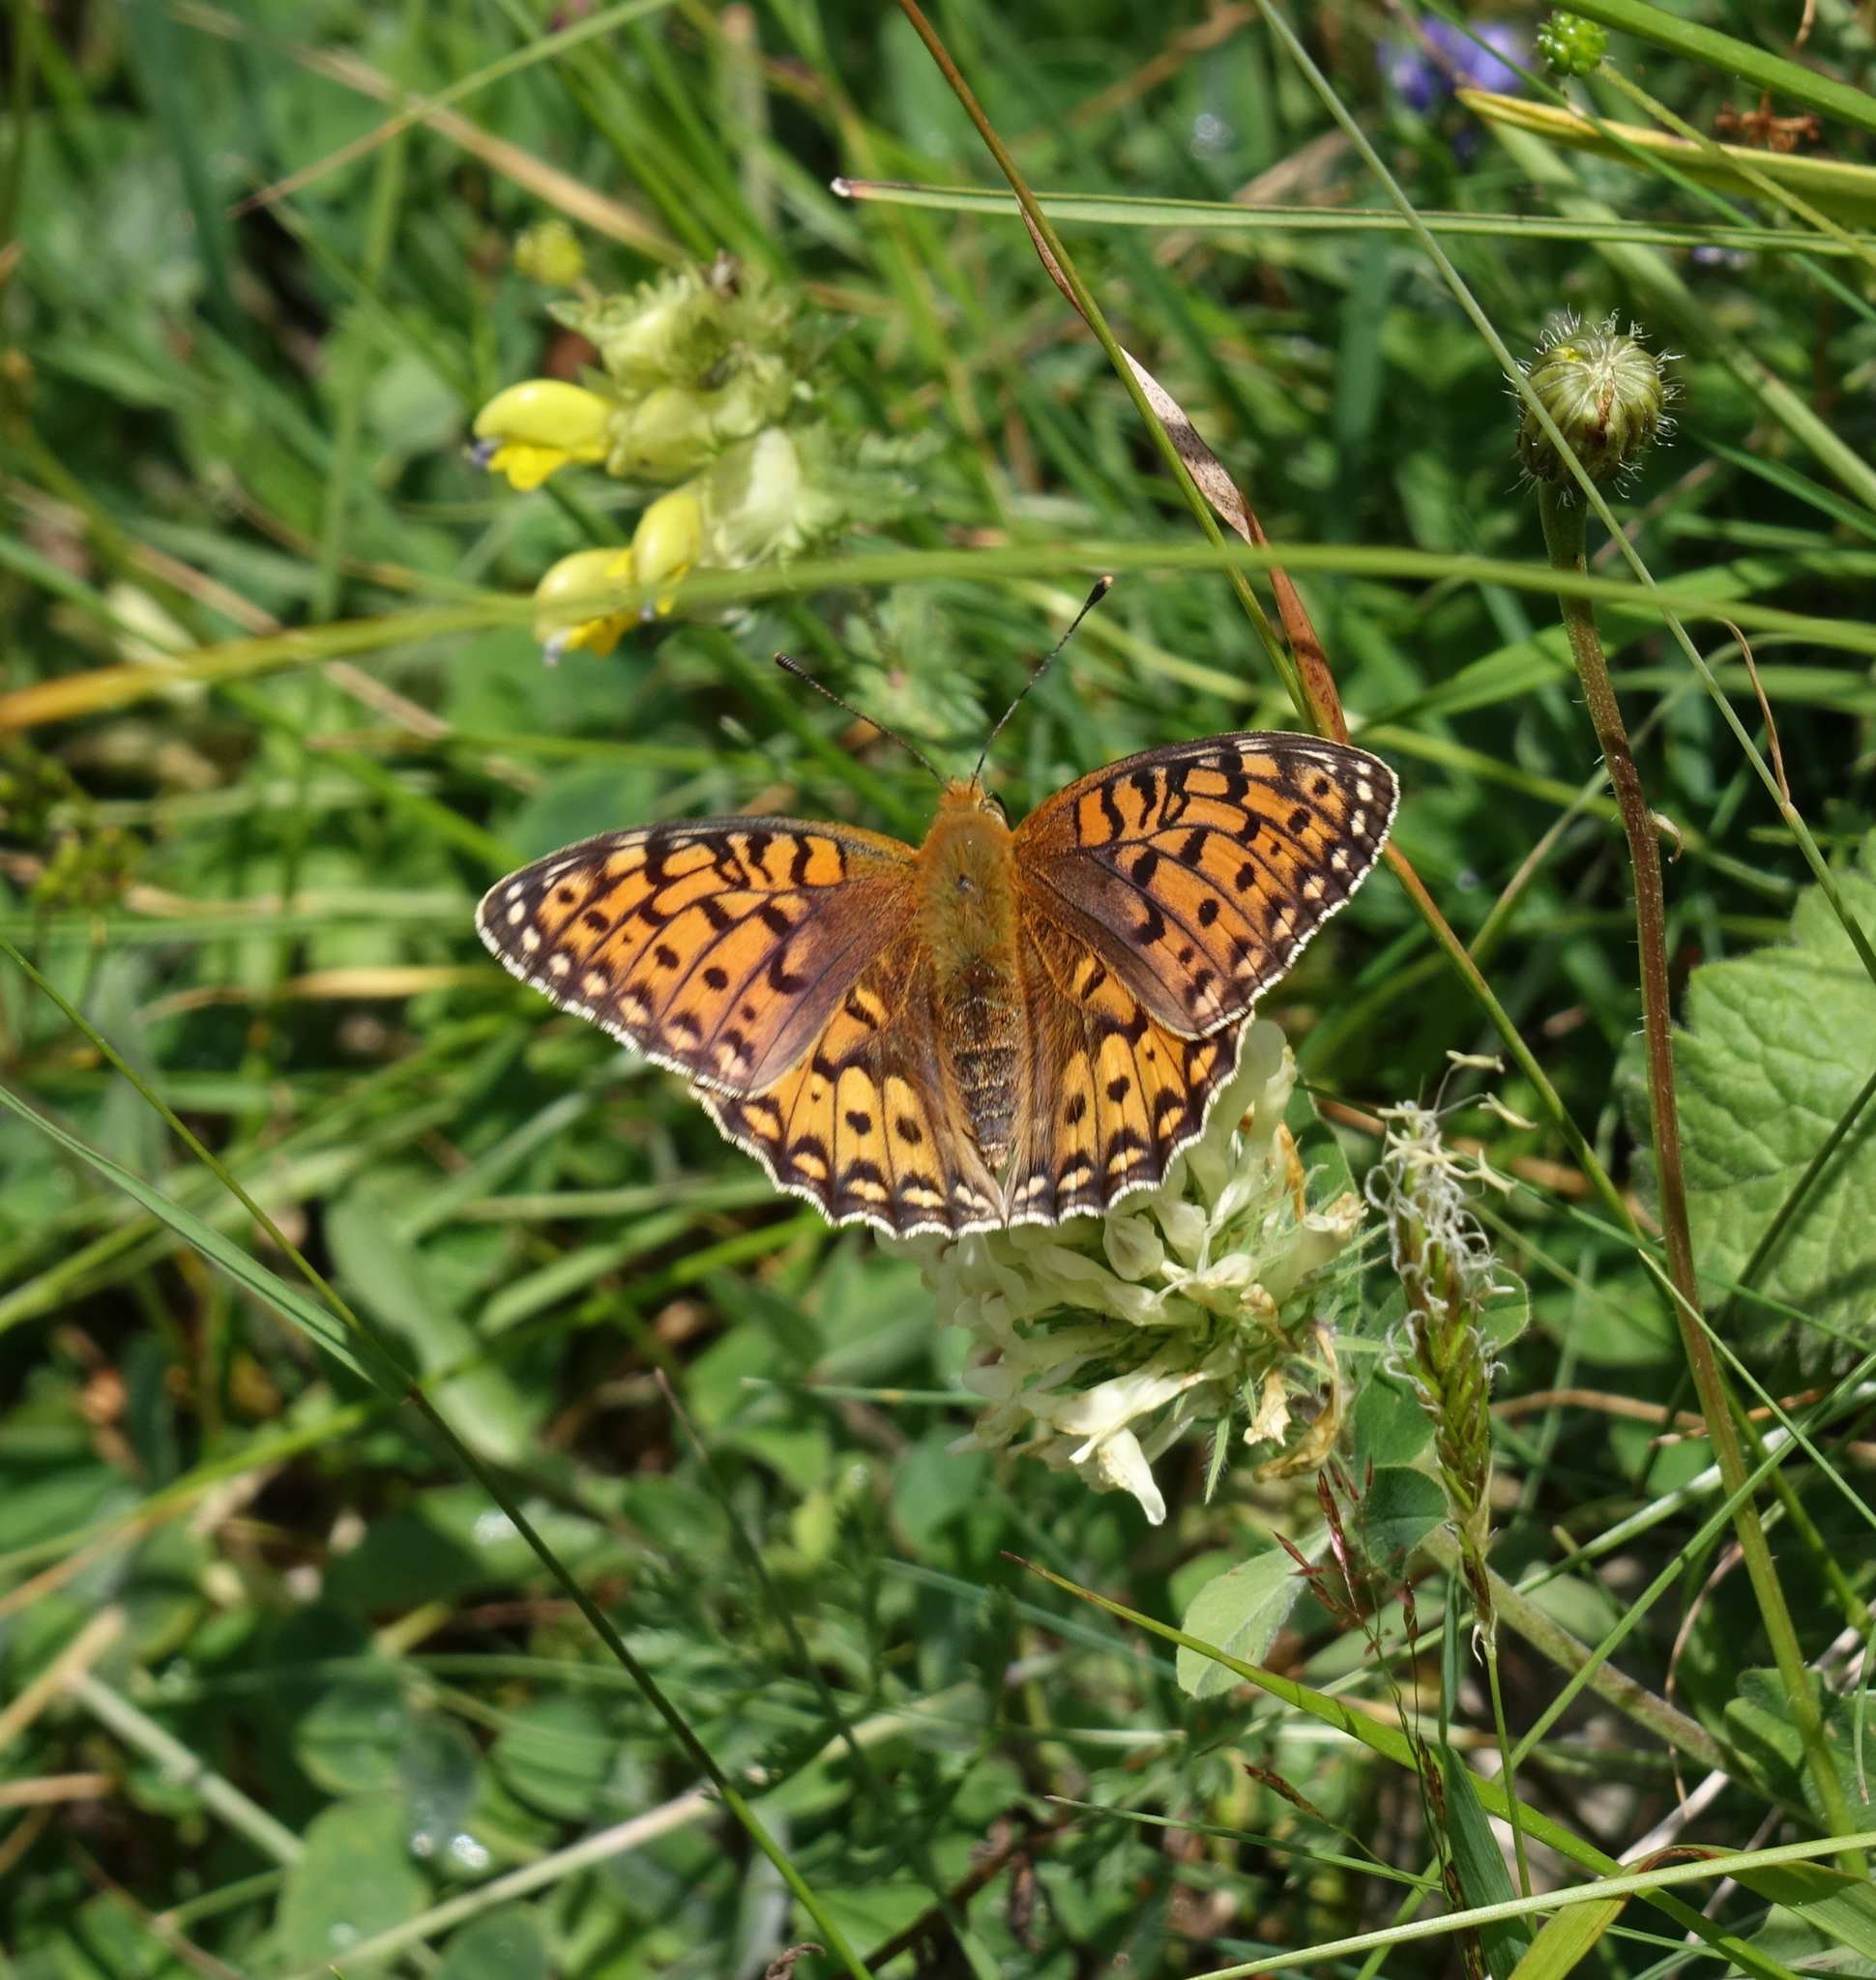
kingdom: Animalia
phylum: Arthropoda
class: Insecta
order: Lepidoptera
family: Nymphalidae
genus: Speyeria
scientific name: Speyeria aglaja
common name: Dark green fritillary
